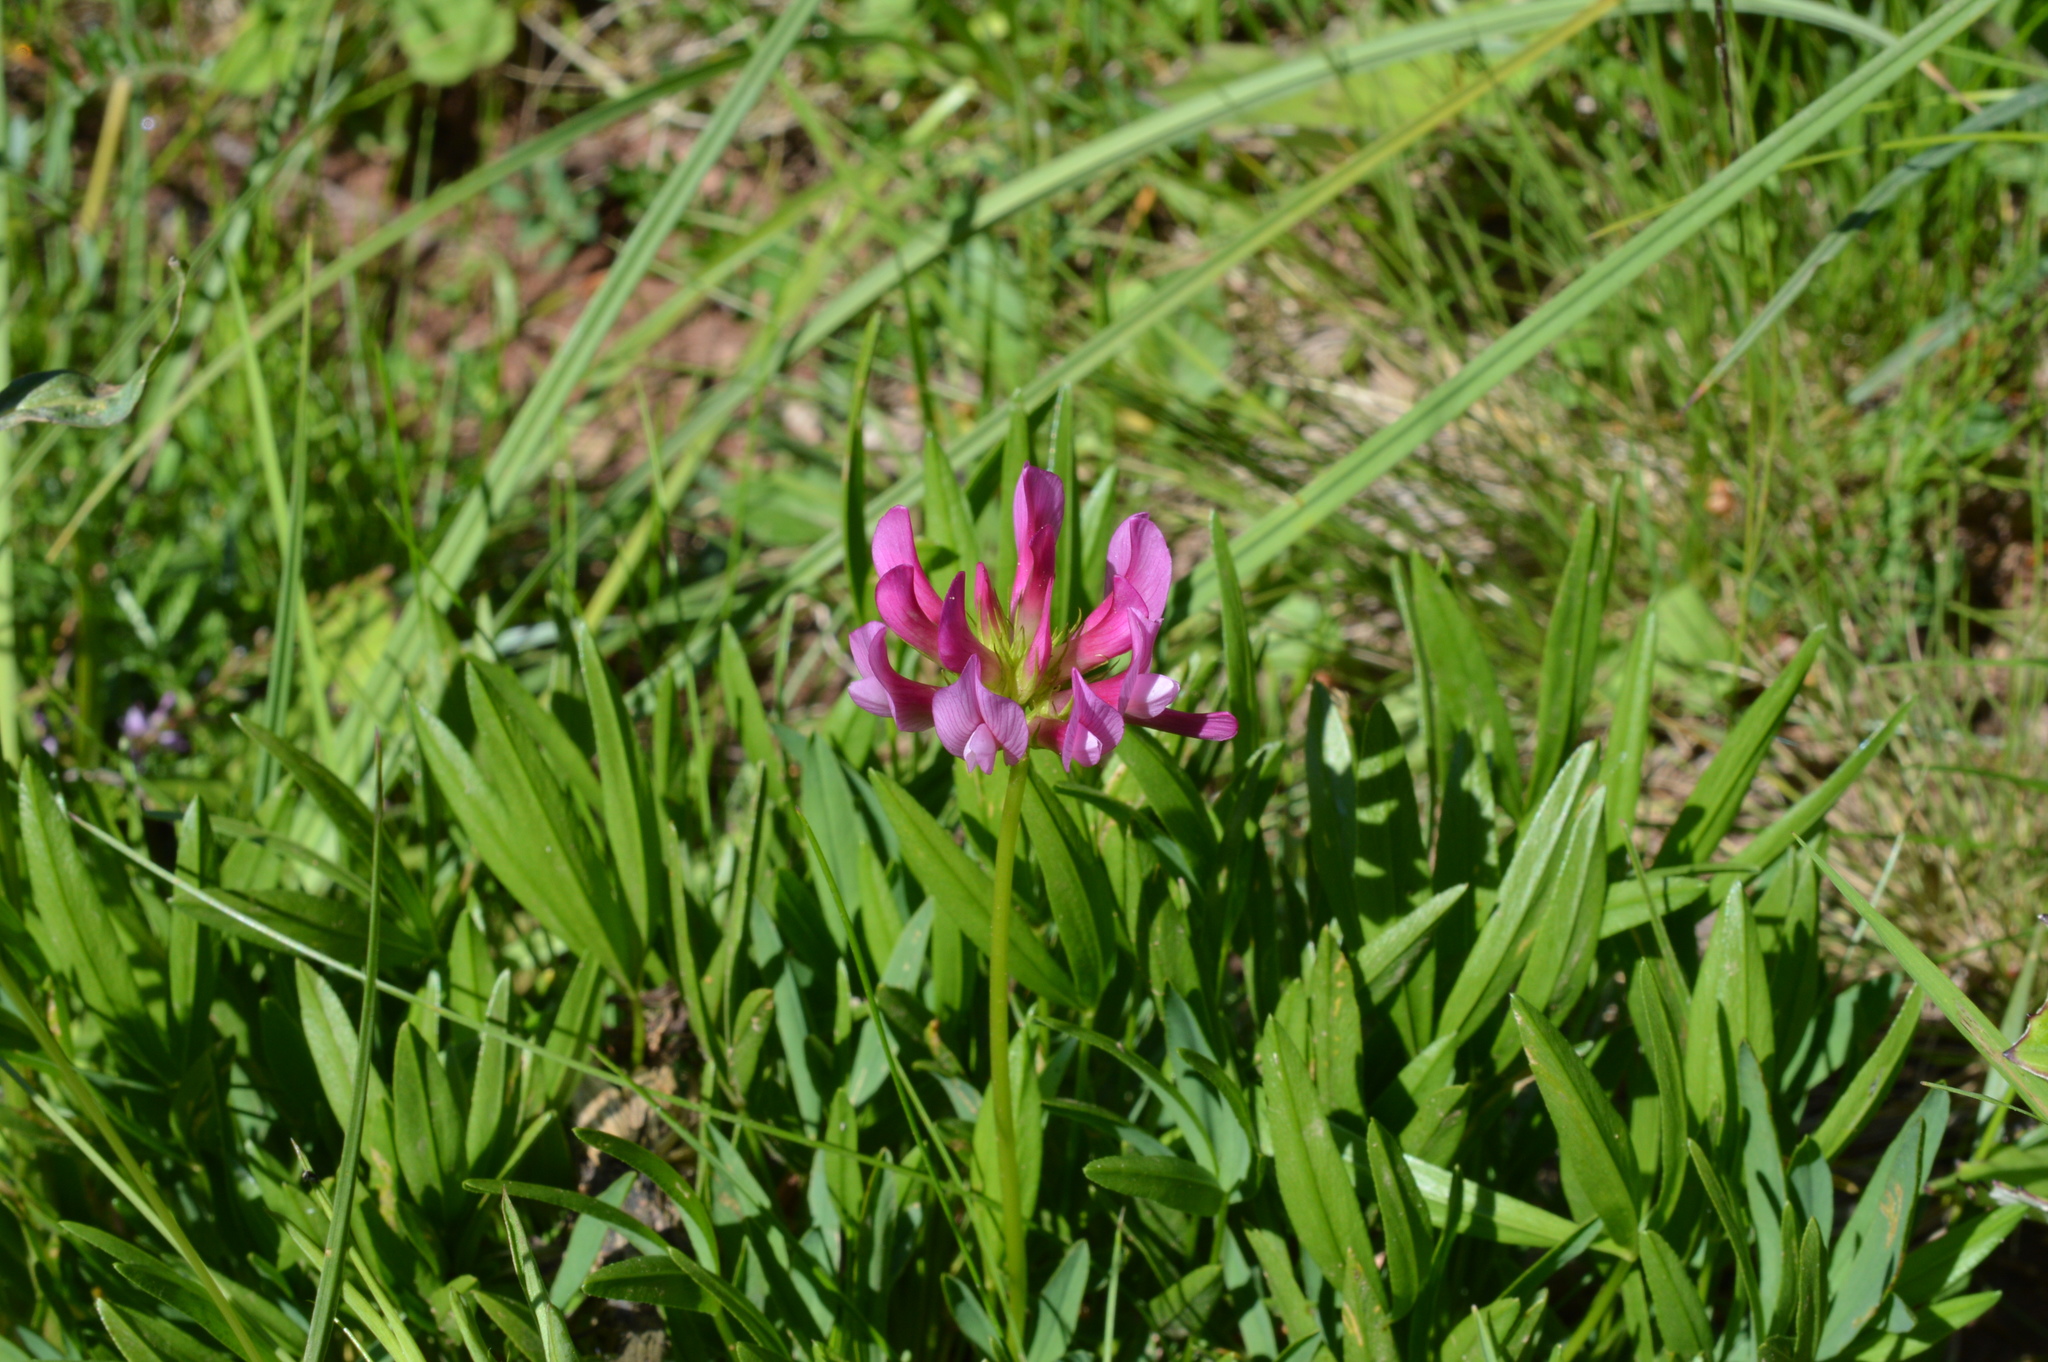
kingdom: Plantae
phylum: Tracheophyta
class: Magnoliopsida
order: Fabales
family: Fabaceae
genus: Trifolium
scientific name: Trifolium alpinum
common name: Alpine clover
